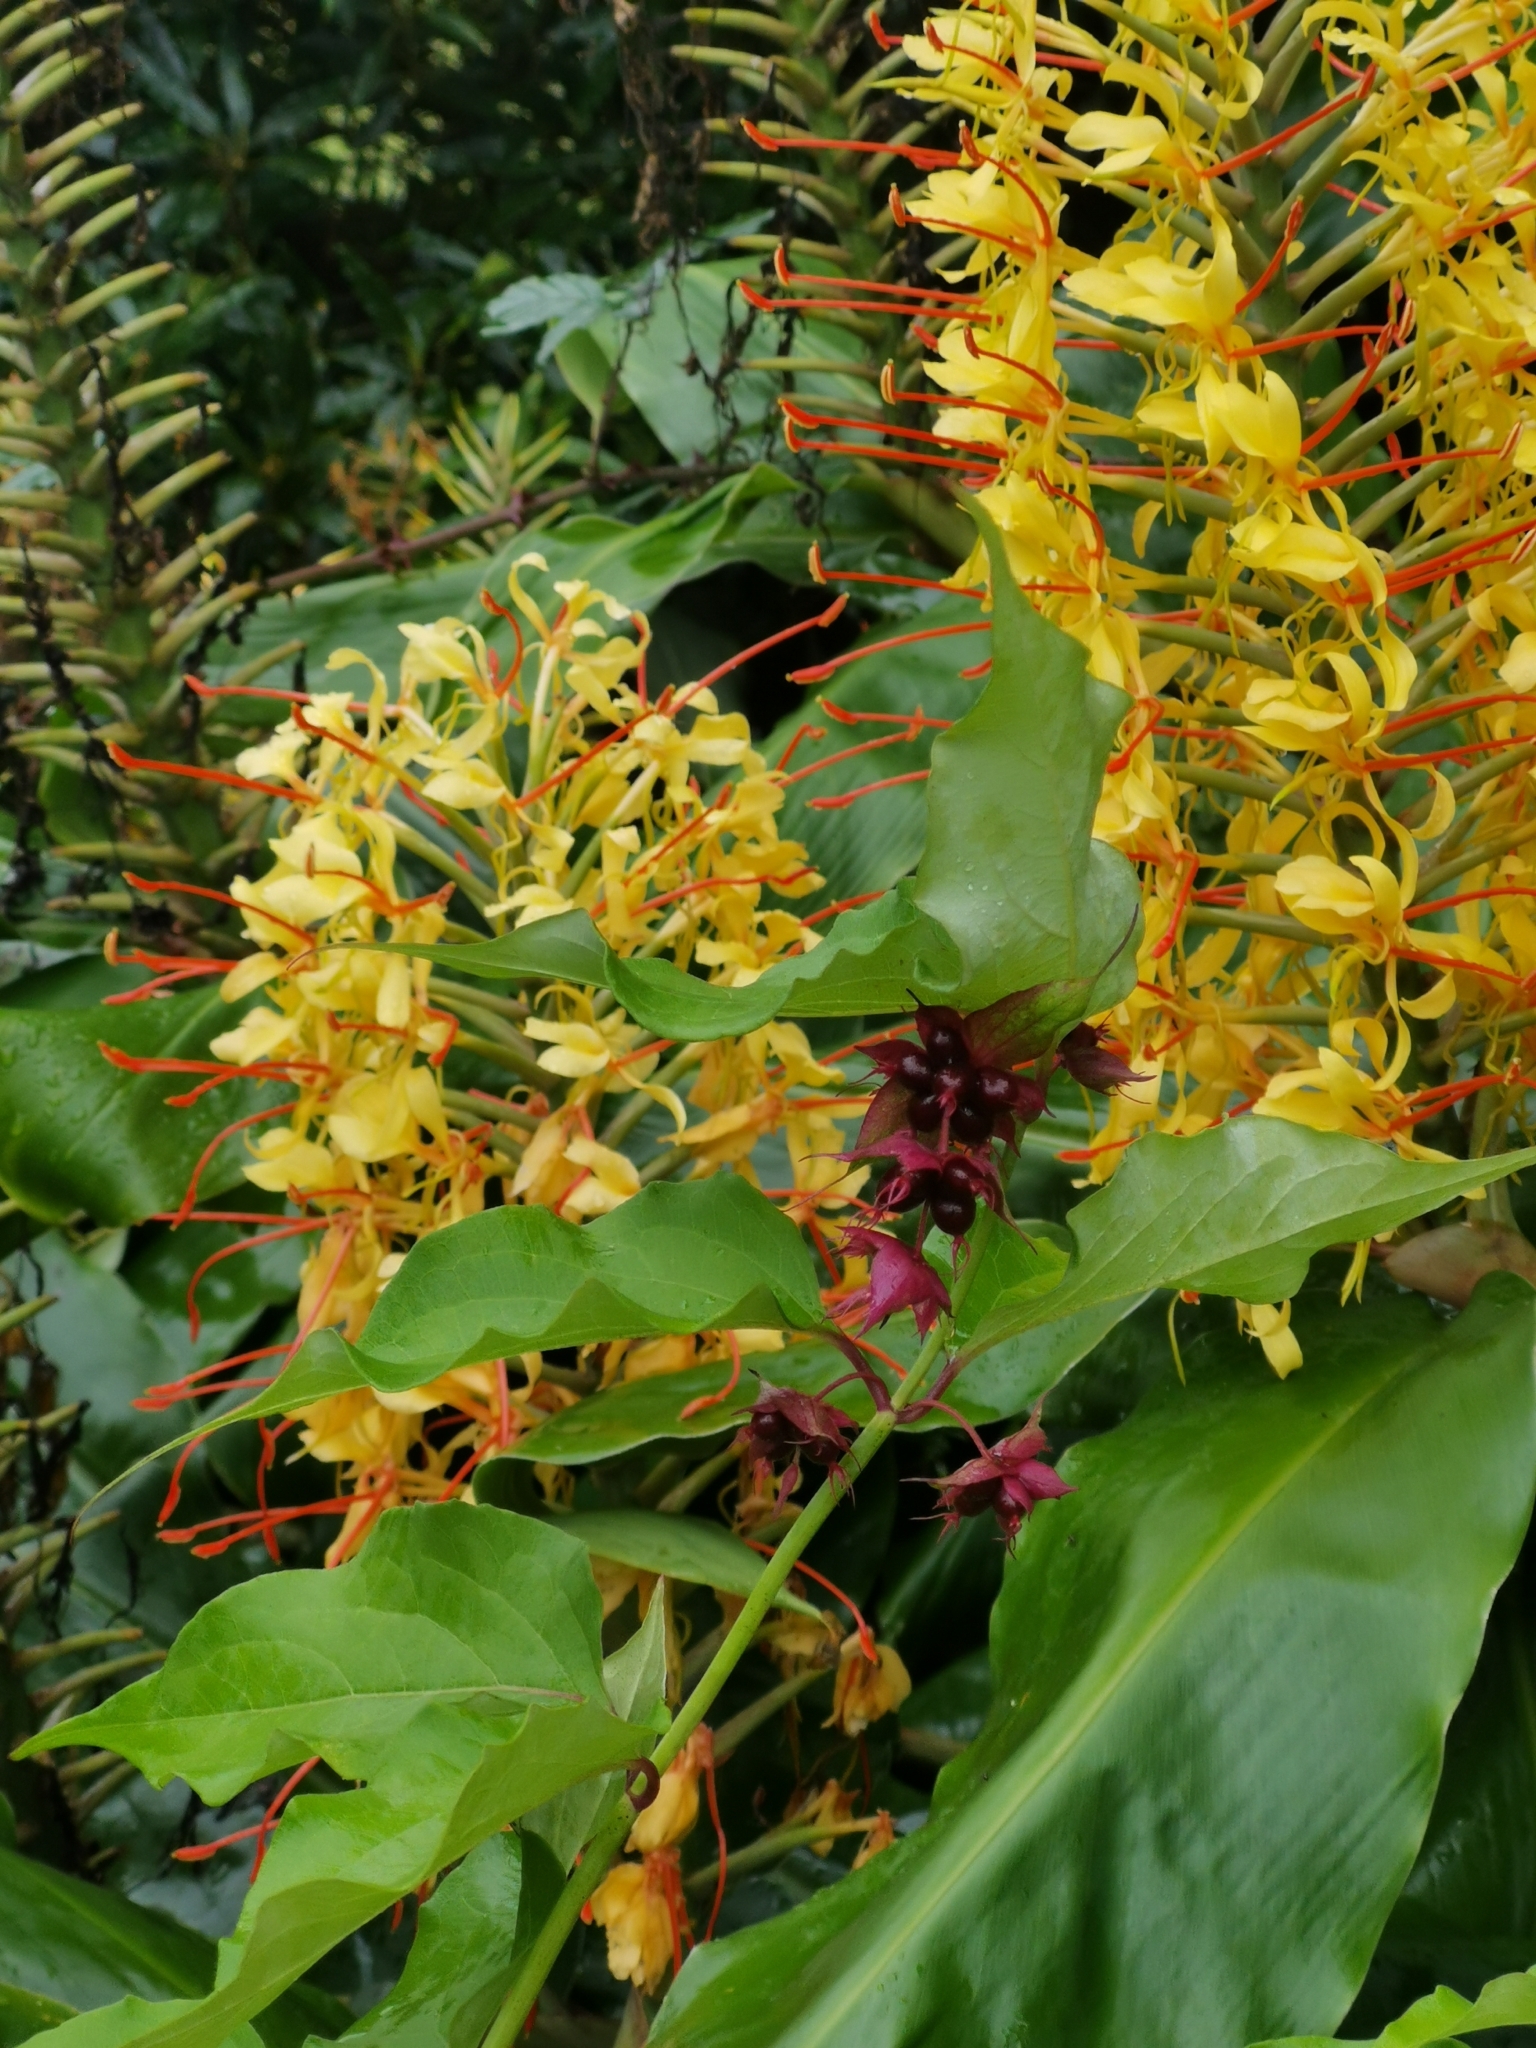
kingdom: Plantae
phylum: Tracheophyta
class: Liliopsida
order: Zingiberales
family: Zingiberaceae
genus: Hedychium
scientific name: Hedychium gardnerianum
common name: Himalayan ginger
